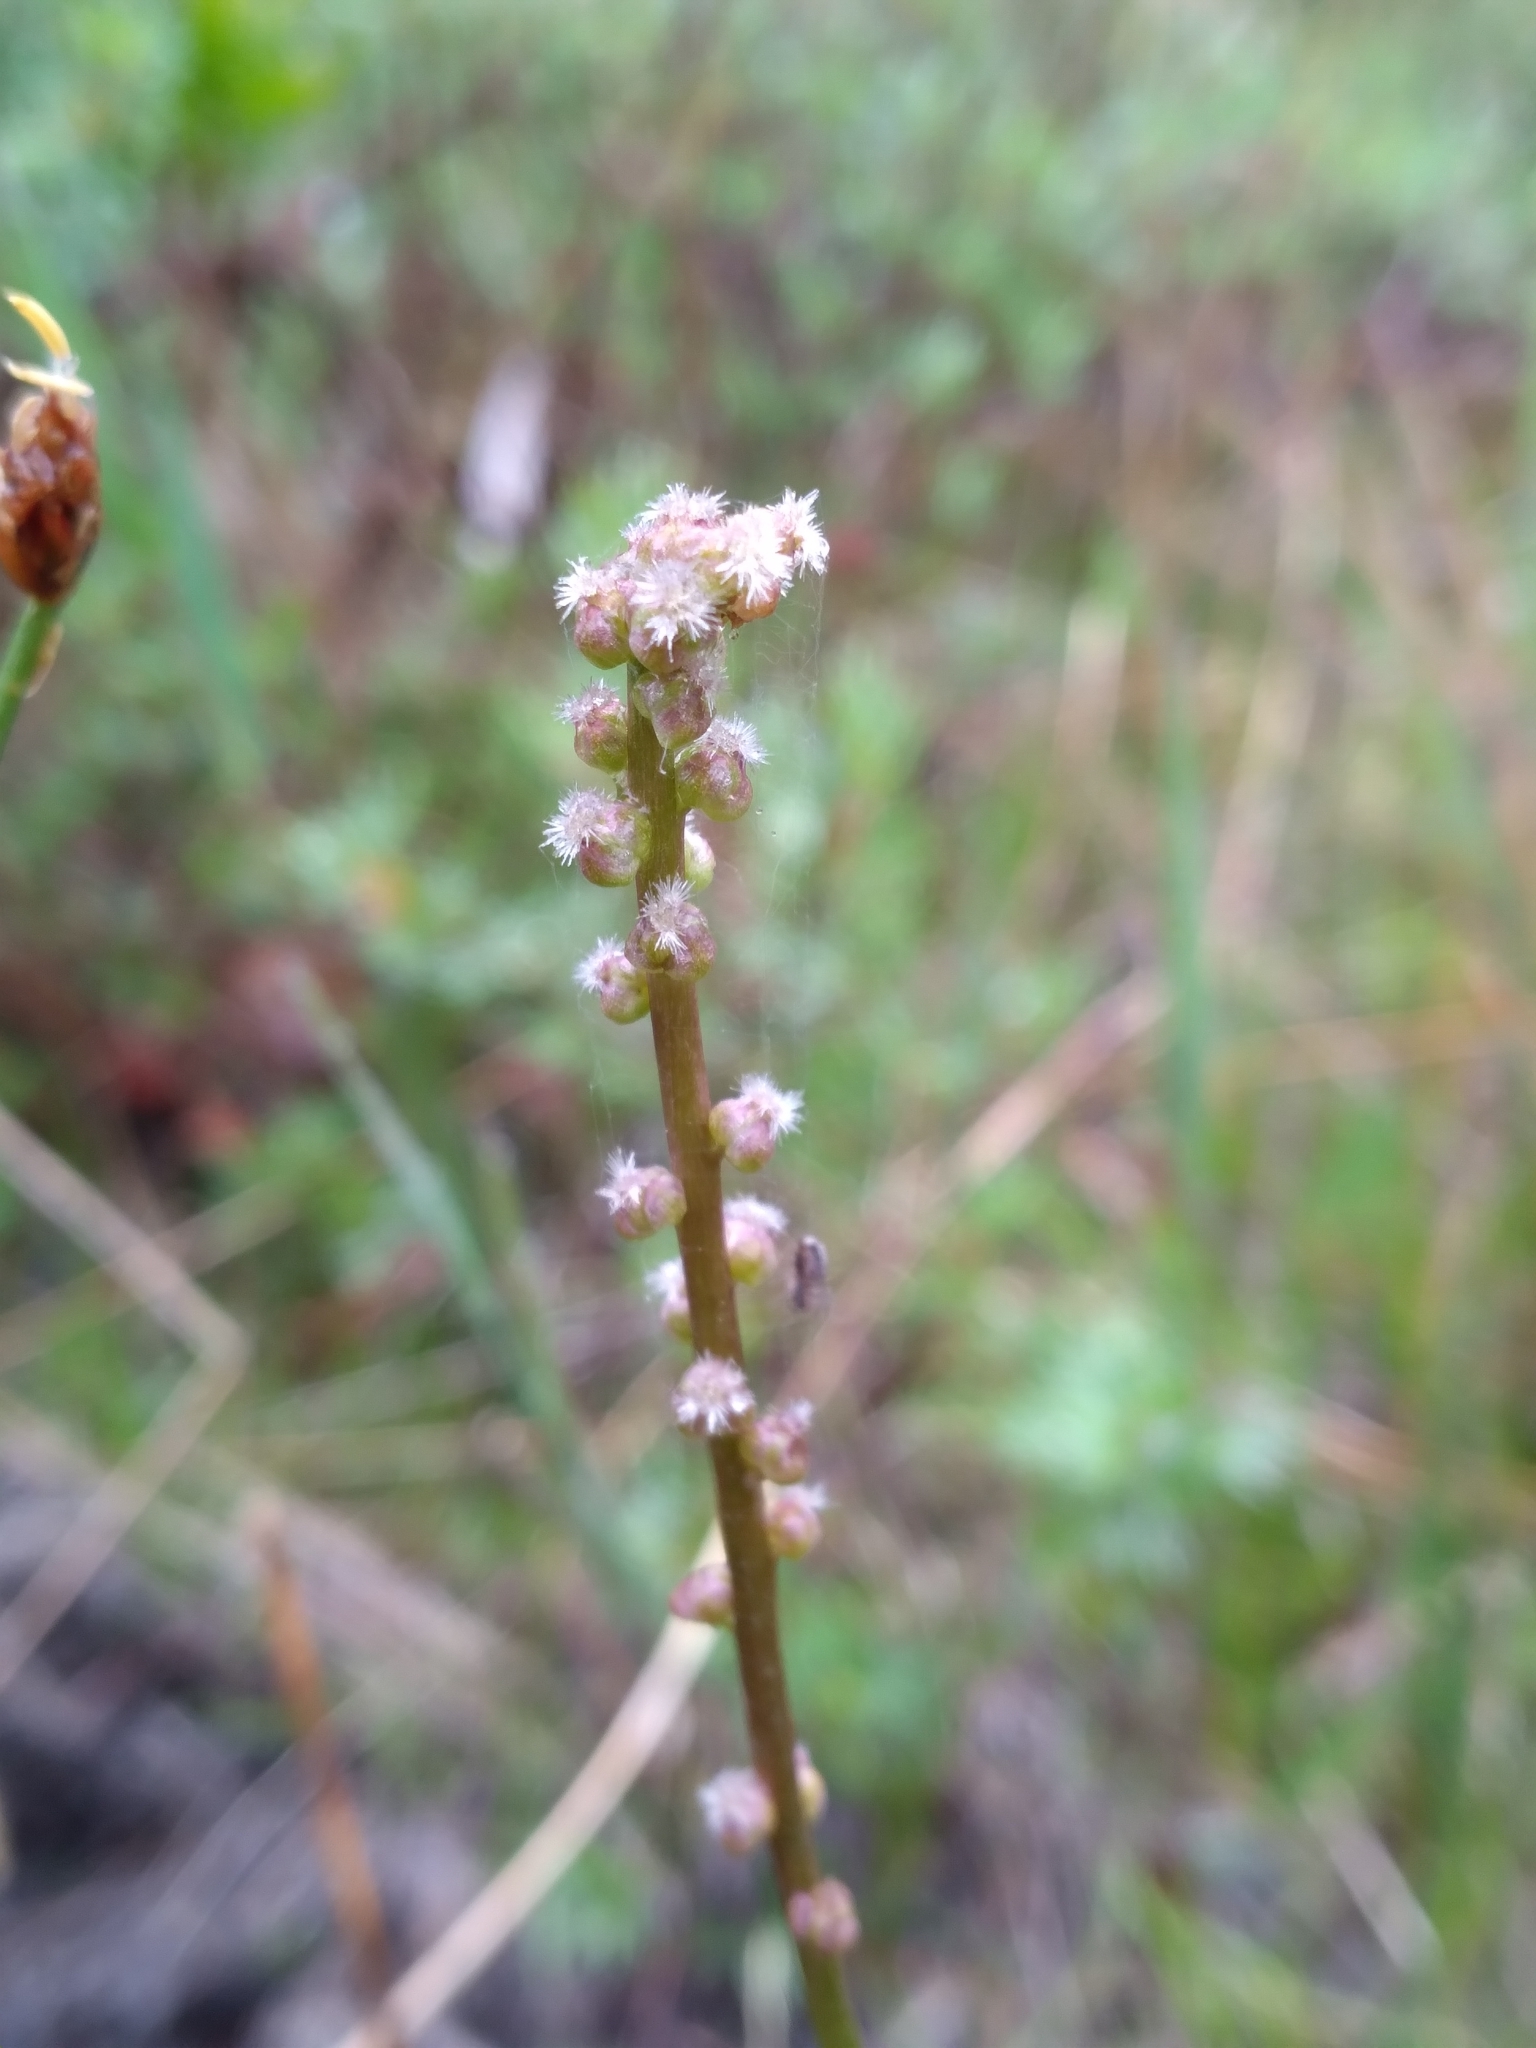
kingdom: Plantae
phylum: Tracheophyta
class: Liliopsida
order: Alismatales
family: Juncaginaceae
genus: Triglochin
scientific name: Triglochin maritima
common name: Sea arrowgrass
